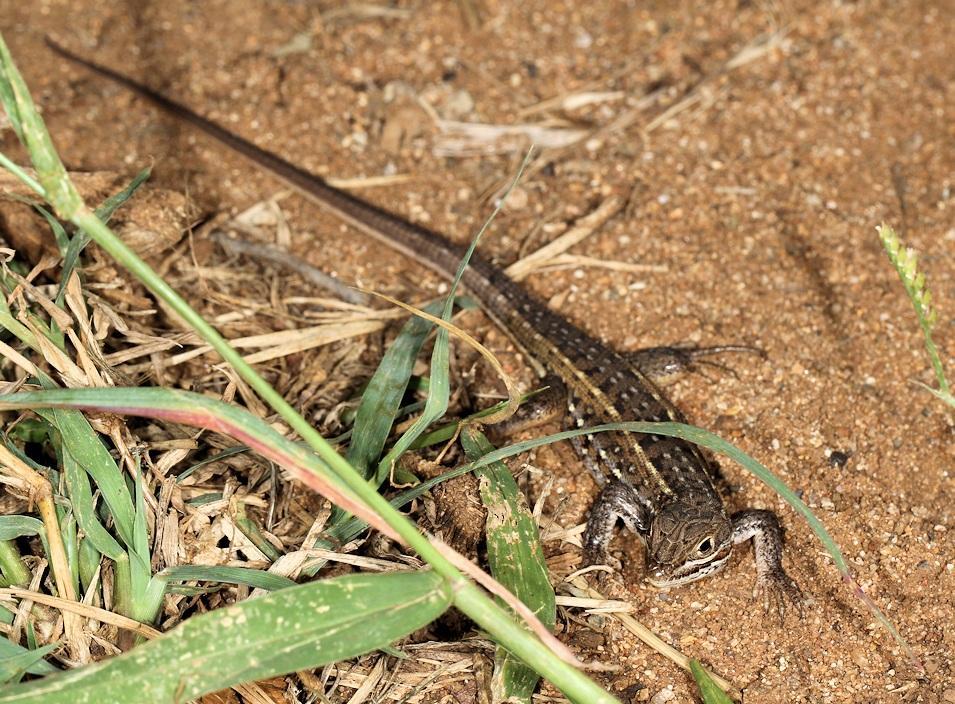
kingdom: Animalia
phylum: Chordata
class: Squamata
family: Lacertidae
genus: Meroles
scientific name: Meroles squamulosus
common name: Common desert lizard
